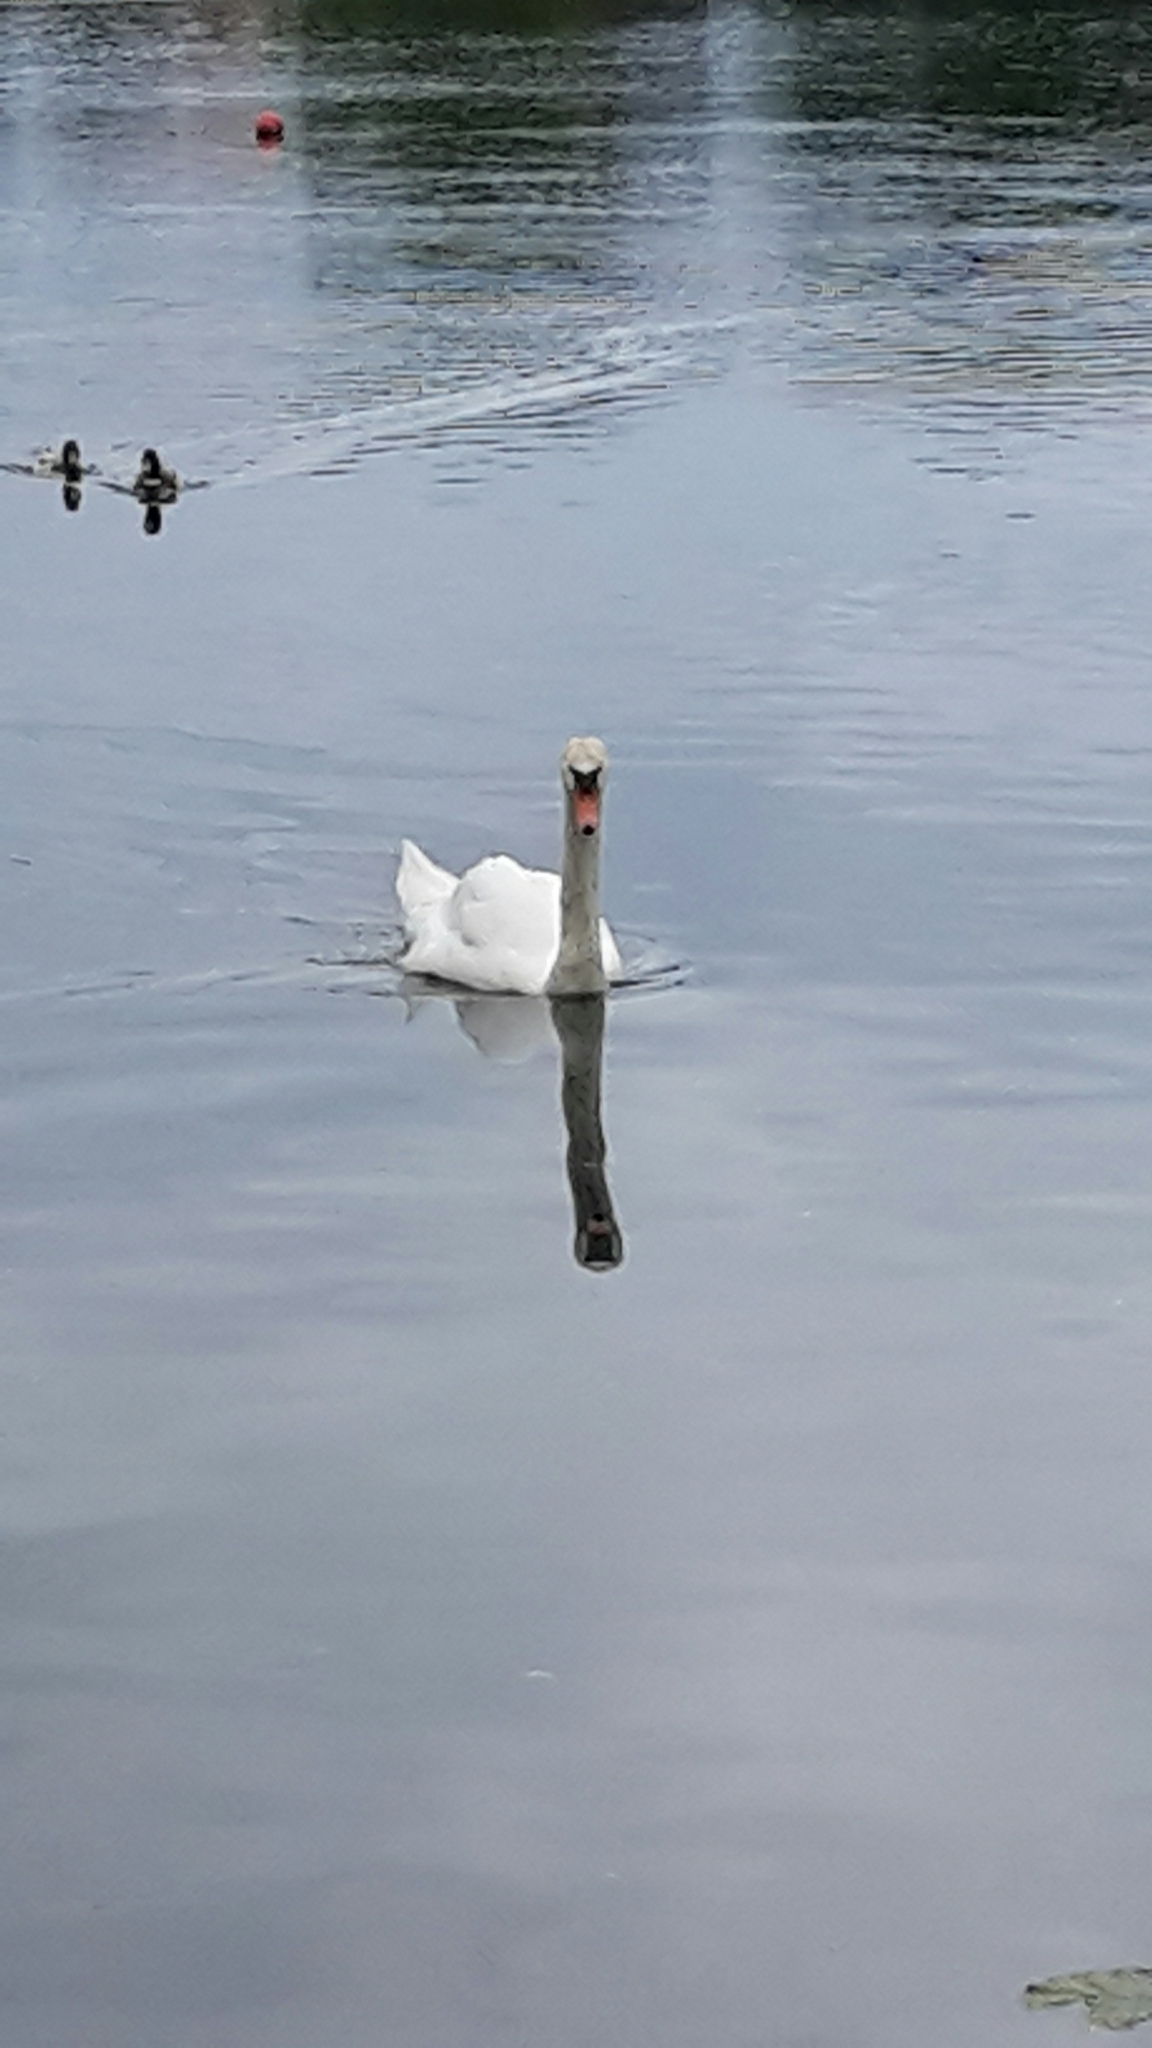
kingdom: Animalia
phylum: Chordata
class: Aves
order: Anseriformes
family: Anatidae
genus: Cygnus
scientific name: Cygnus olor
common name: Mute swan
